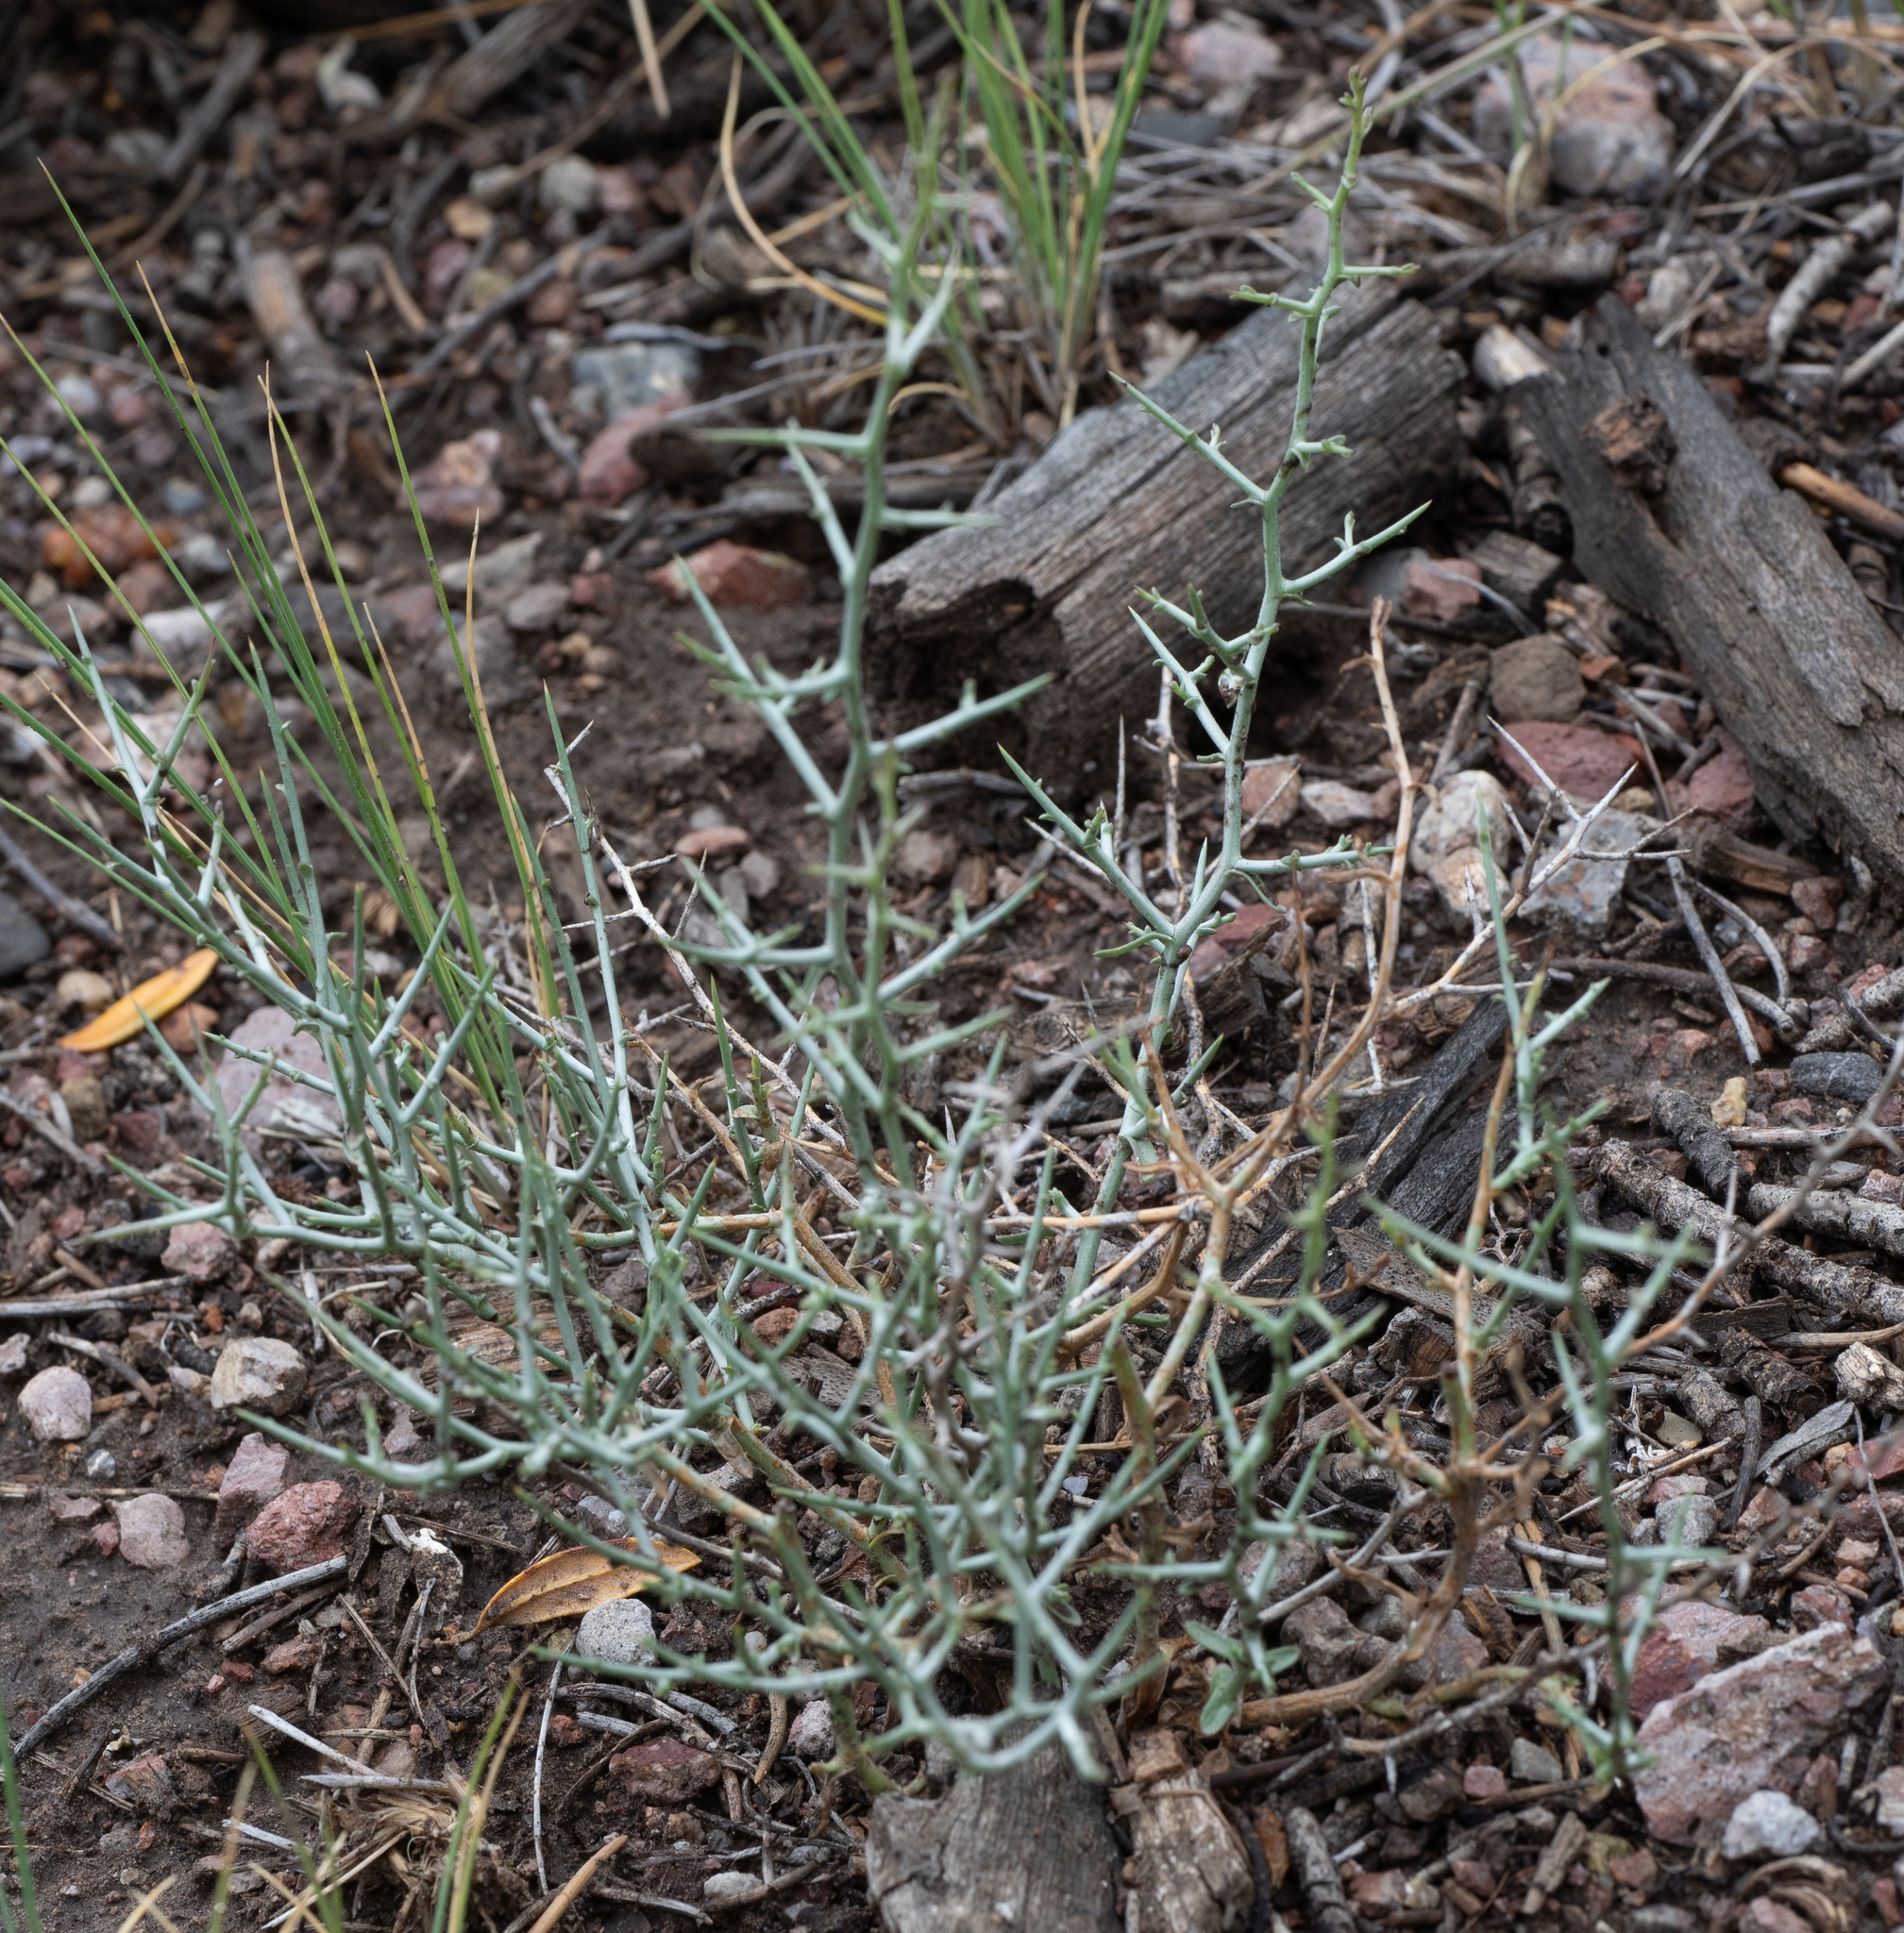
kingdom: Plantae
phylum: Tracheophyta
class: Magnoliopsida
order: Asterales
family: Asteraceae
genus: Pleiacanthus
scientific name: Pleiacanthus spinosus
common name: Thorny skeleton-weed
